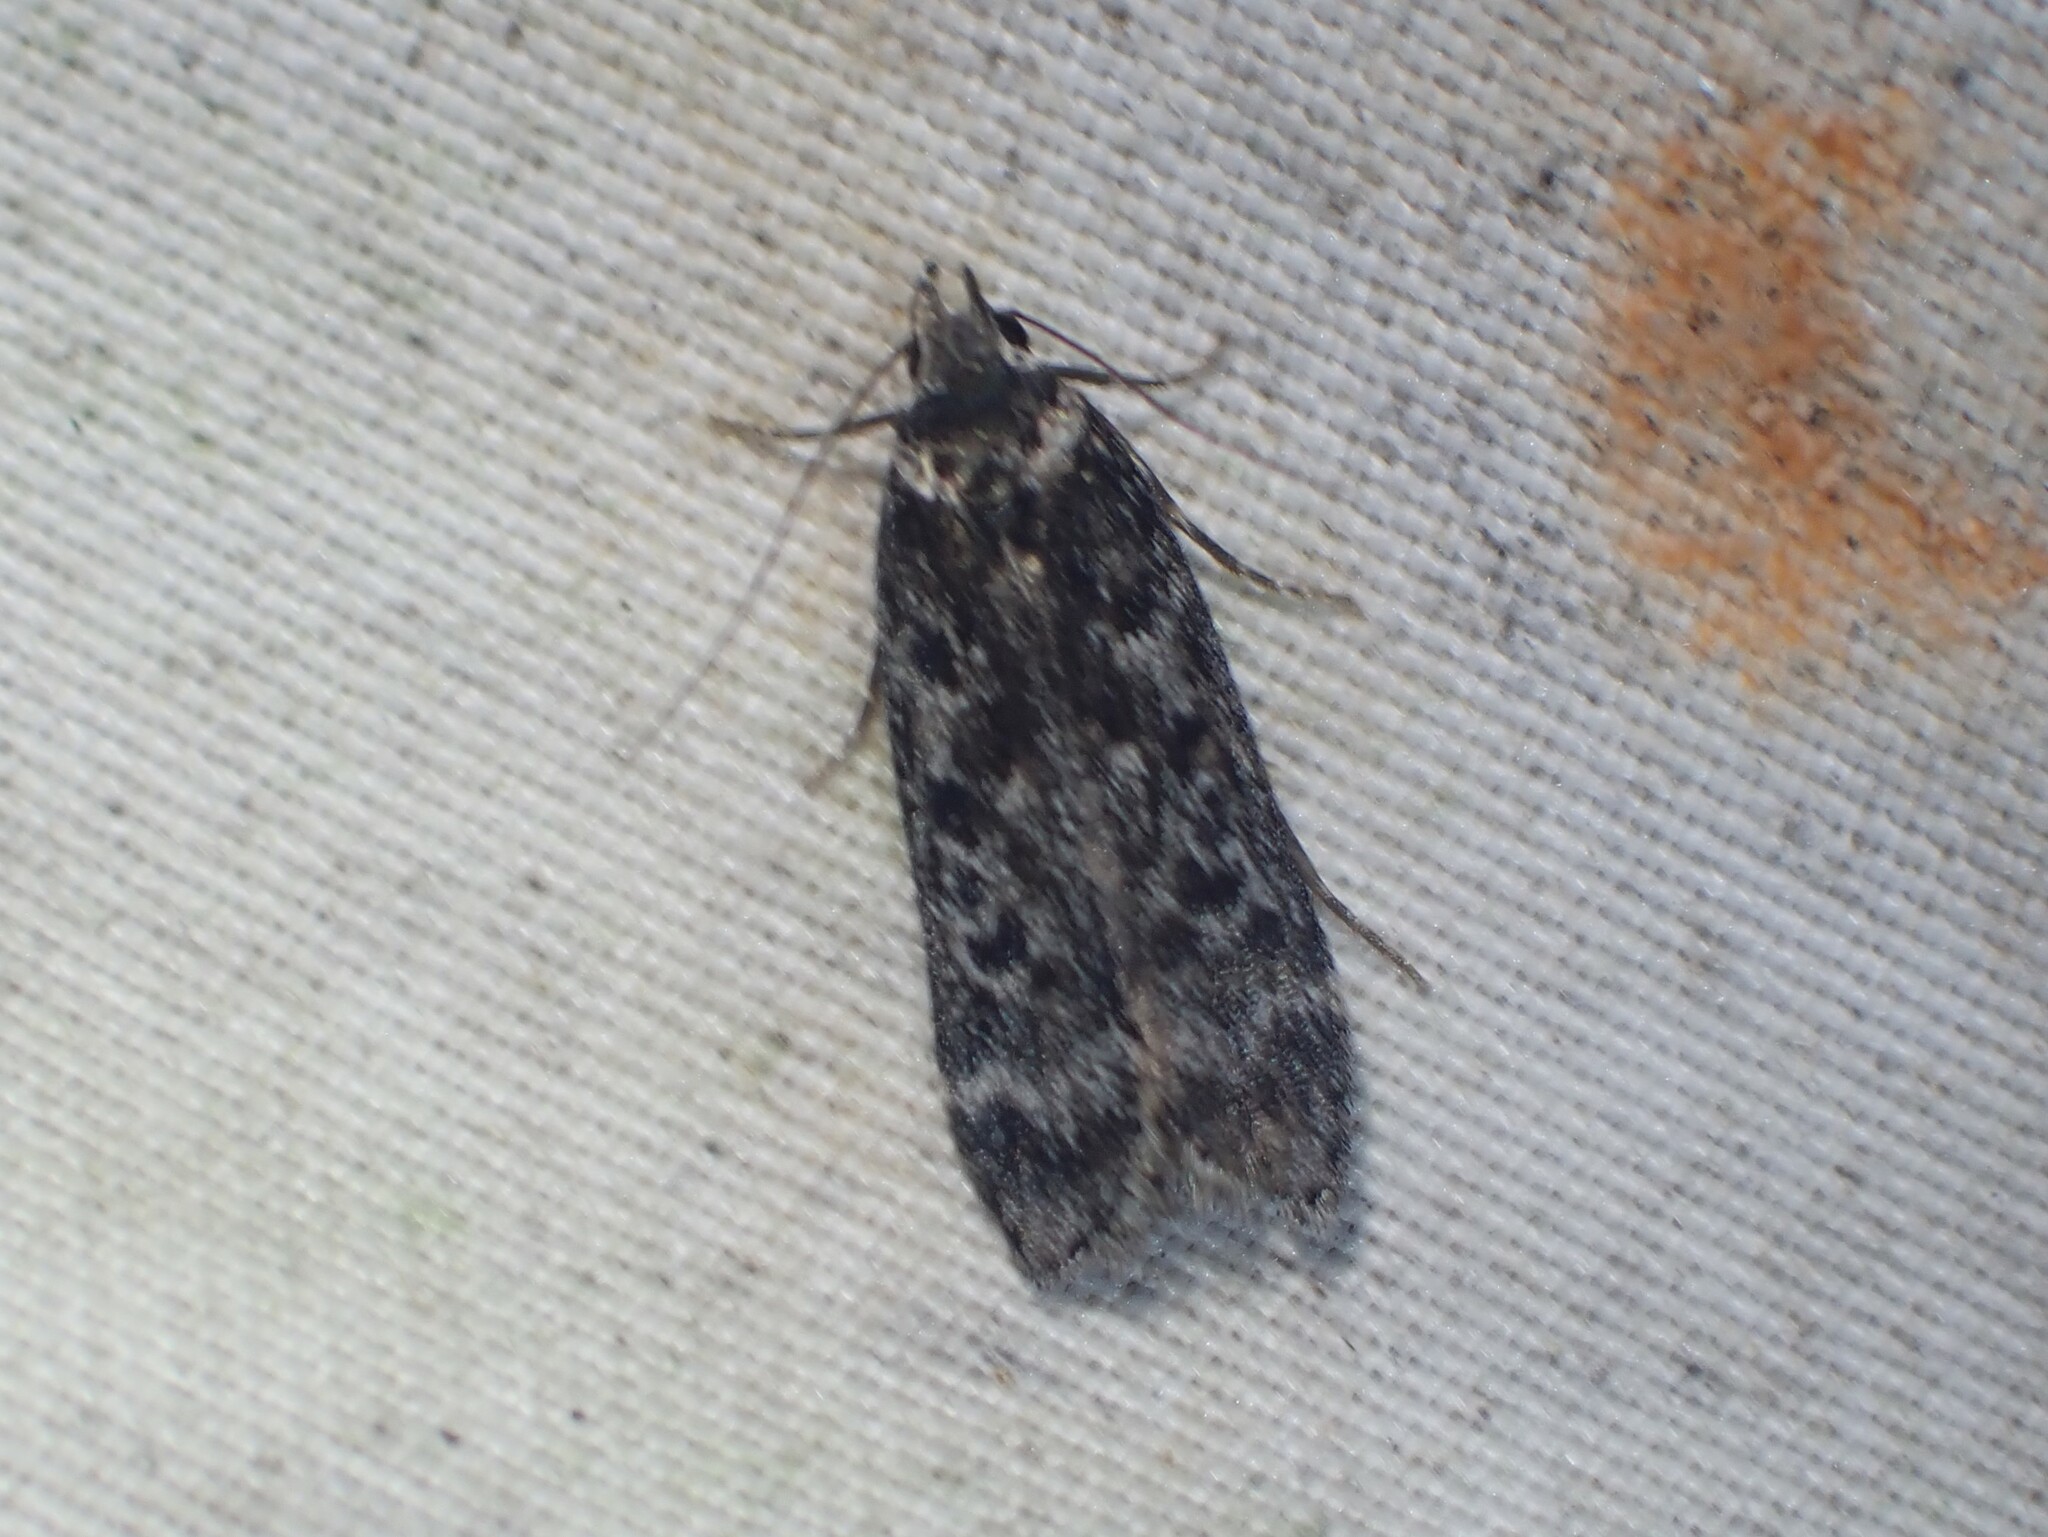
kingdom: Animalia
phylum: Arthropoda
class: Insecta
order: Lepidoptera
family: Gelechiidae
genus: Anacampsis
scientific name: Anacampsis niveopulvella
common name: Pale-headed aspen leafroller moth
